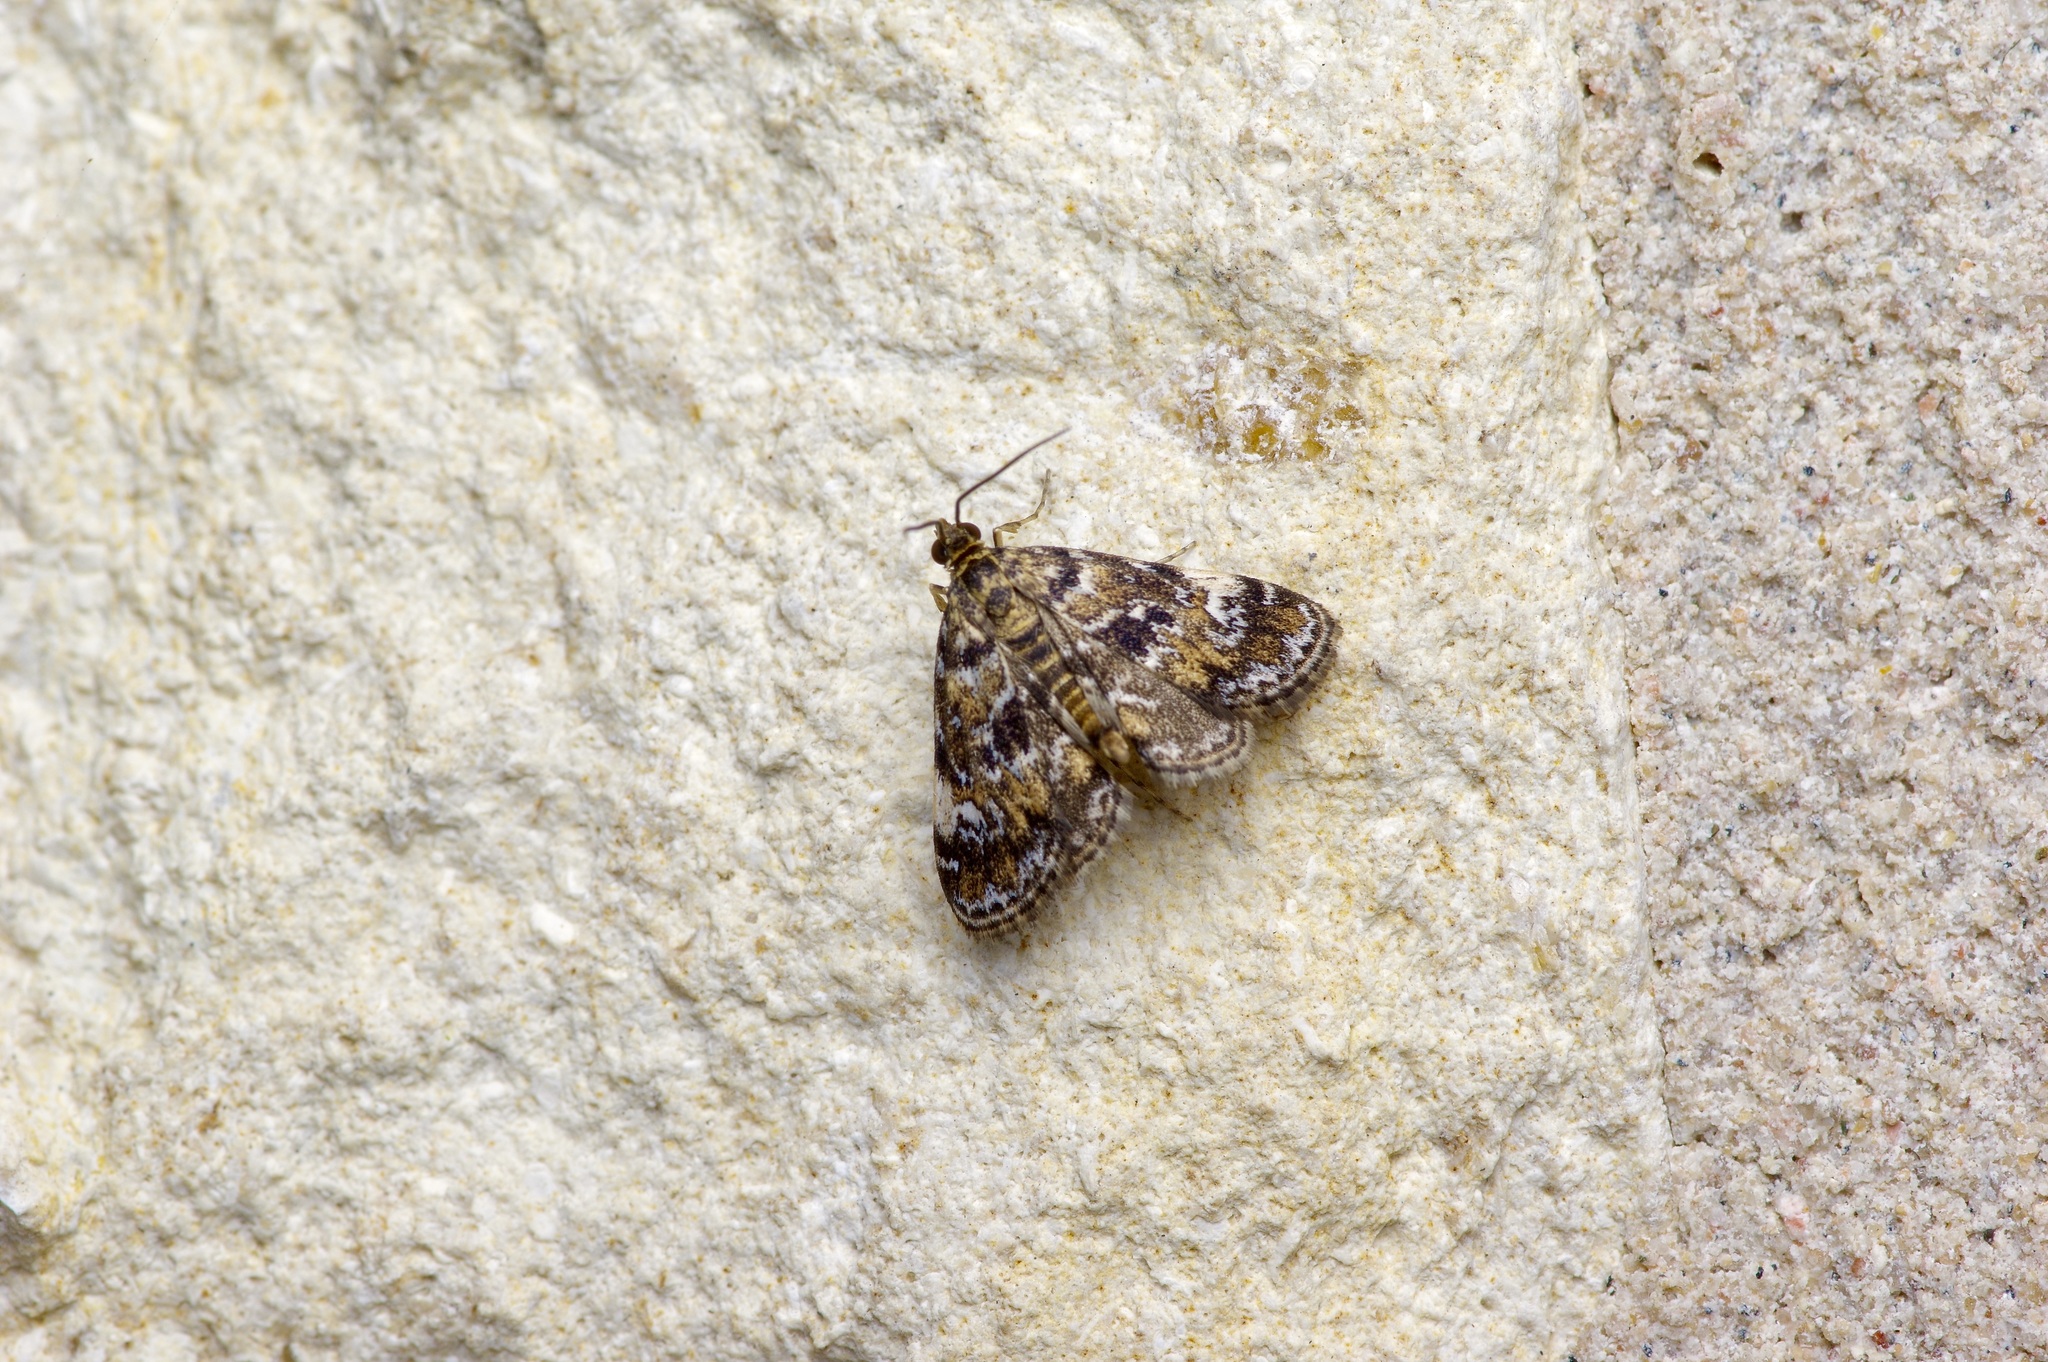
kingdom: Animalia
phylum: Arthropoda
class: Insecta
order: Lepidoptera
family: Crambidae
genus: Elophila
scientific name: Elophila obliteralis
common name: Waterlily leafcutter moth
